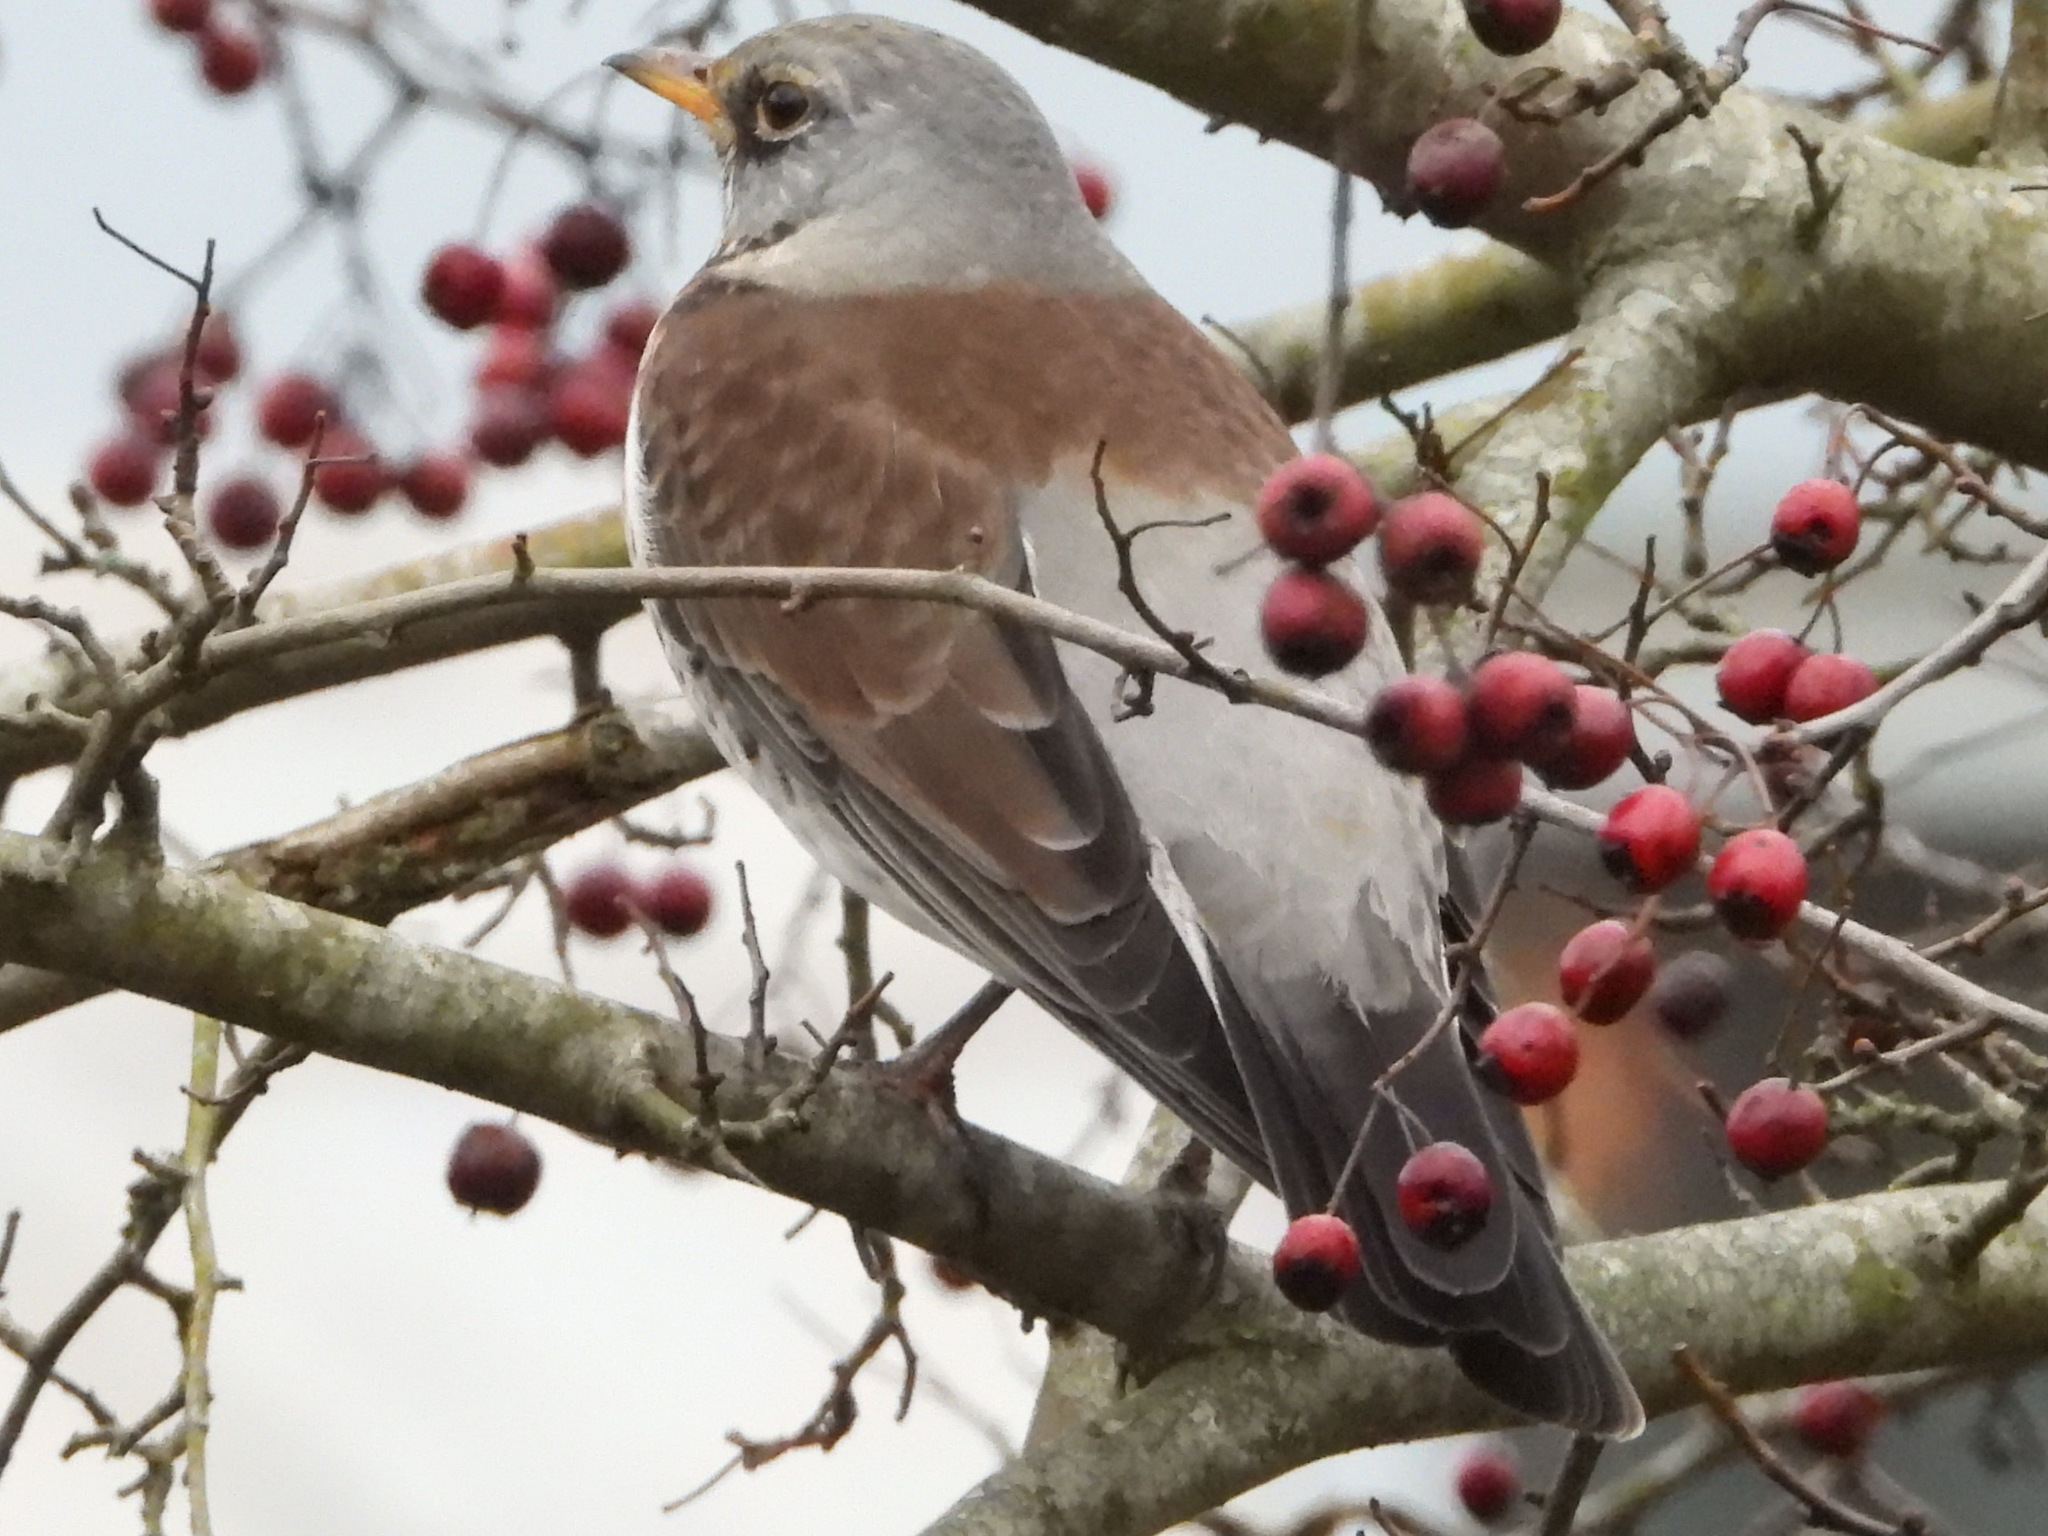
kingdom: Animalia
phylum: Chordata
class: Aves
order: Passeriformes
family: Turdidae
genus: Turdus
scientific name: Turdus pilaris
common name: Fieldfare
